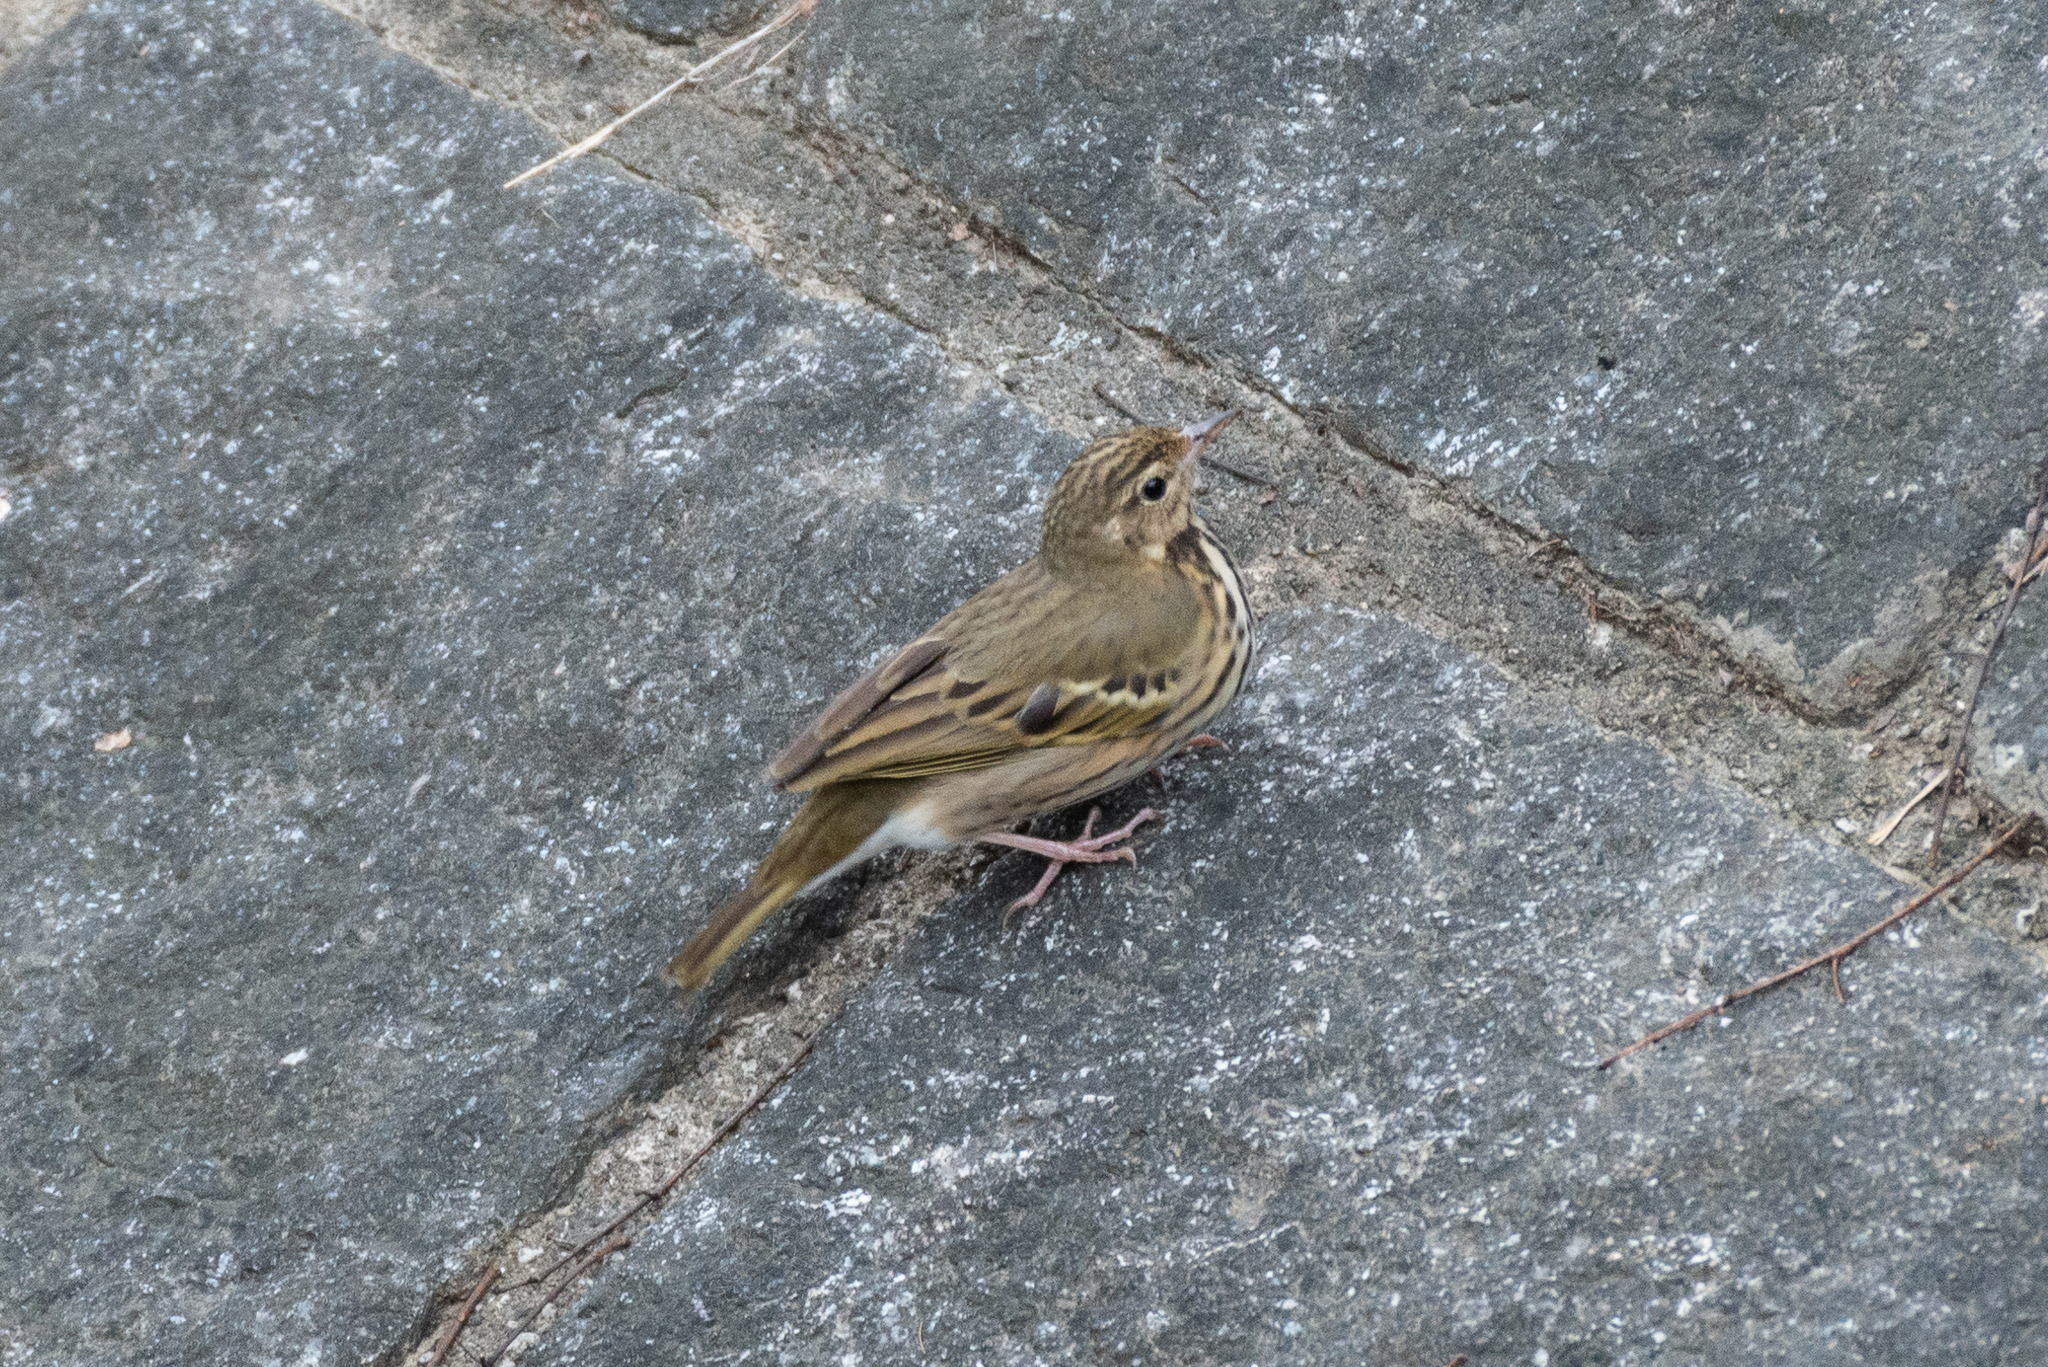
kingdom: Animalia
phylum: Chordata
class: Aves
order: Passeriformes
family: Motacillidae
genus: Anthus
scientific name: Anthus hodgsoni
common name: Olive-backed pipit
